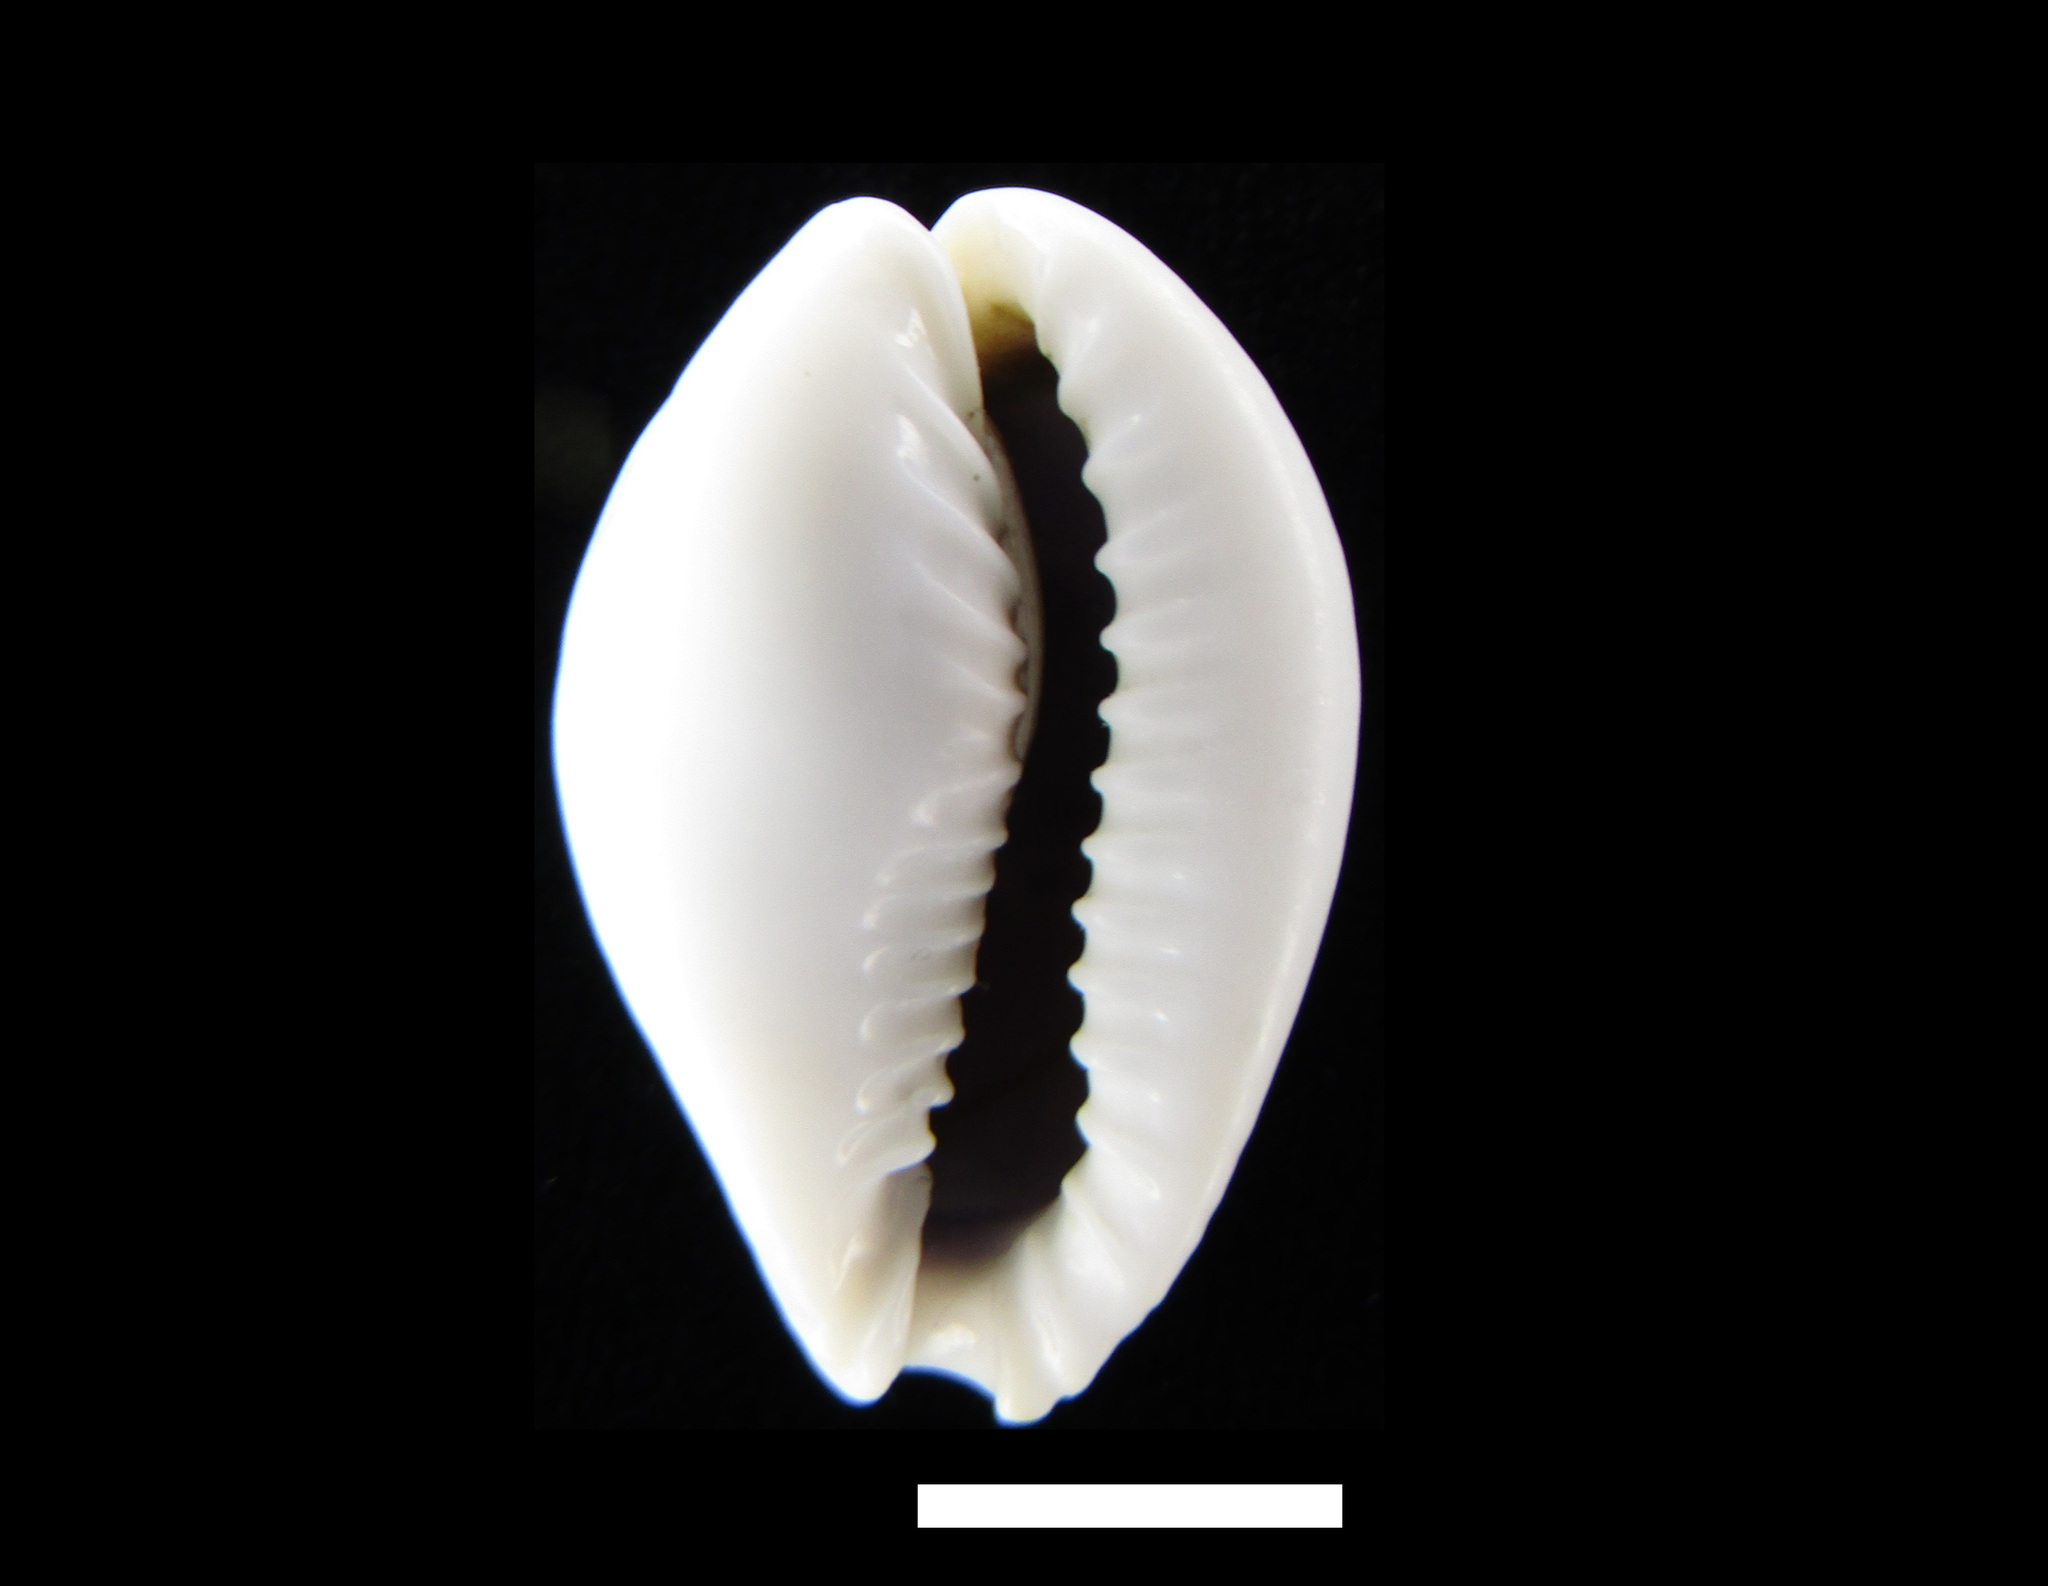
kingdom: Animalia
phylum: Mollusca
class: Gastropoda
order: Littorinimorpha
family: Cypraeidae
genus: Naria
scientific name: Naria miliaris
